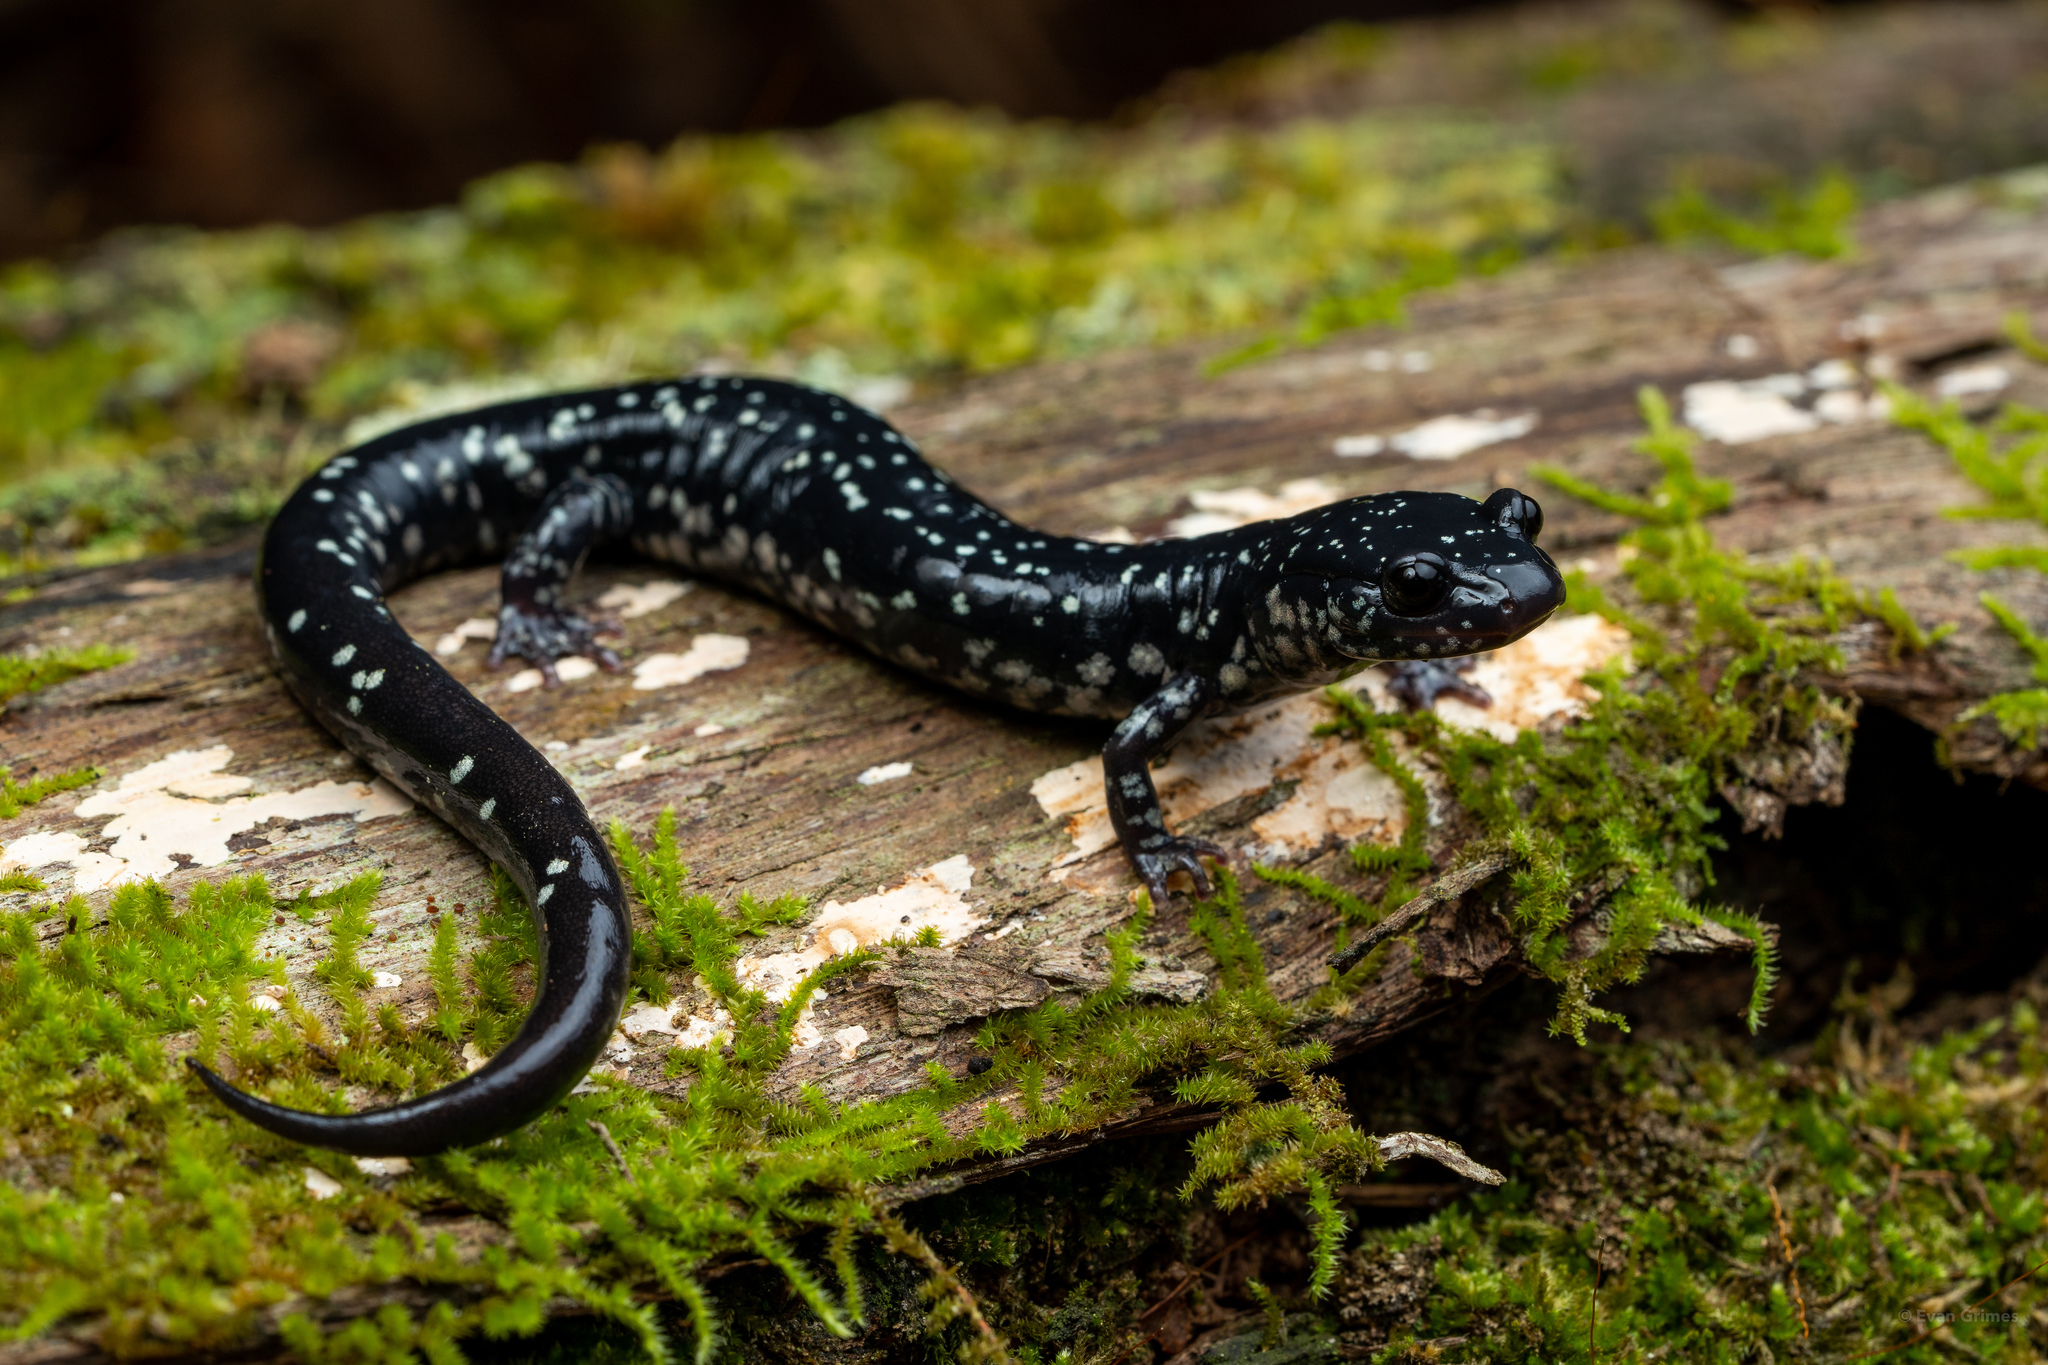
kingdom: Animalia
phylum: Chordata
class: Amphibia
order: Caudata
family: Plethodontidae
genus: Plethodon
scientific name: Plethodon sequoyah
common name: Sequoyah slimy salamander
